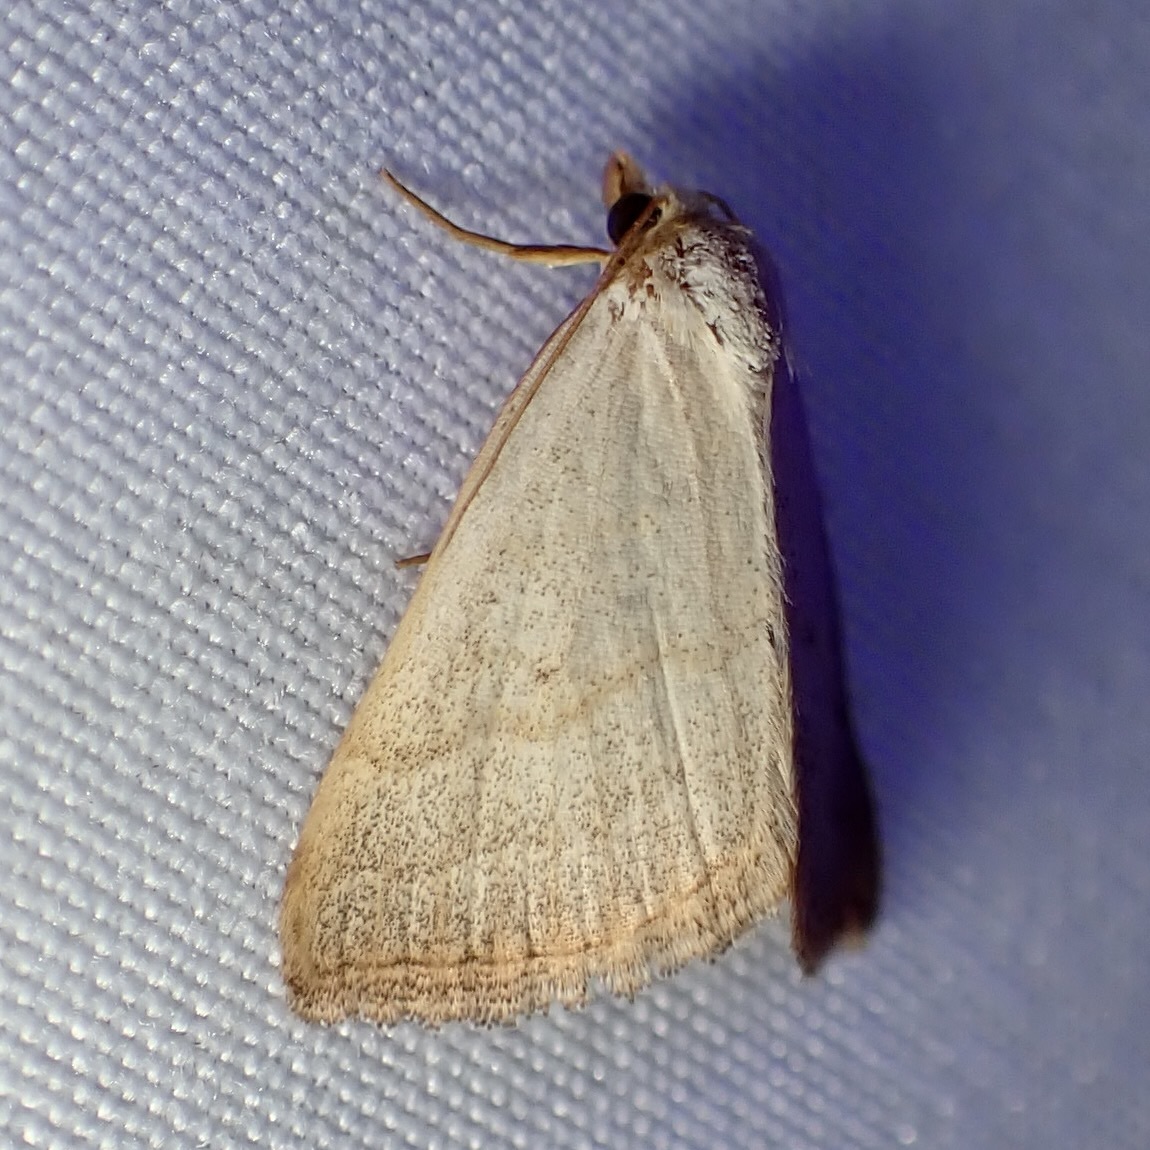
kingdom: Animalia
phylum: Arthropoda
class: Insecta
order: Lepidoptera
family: Erebidae
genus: Oxycilla
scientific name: Oxycilla tripla
